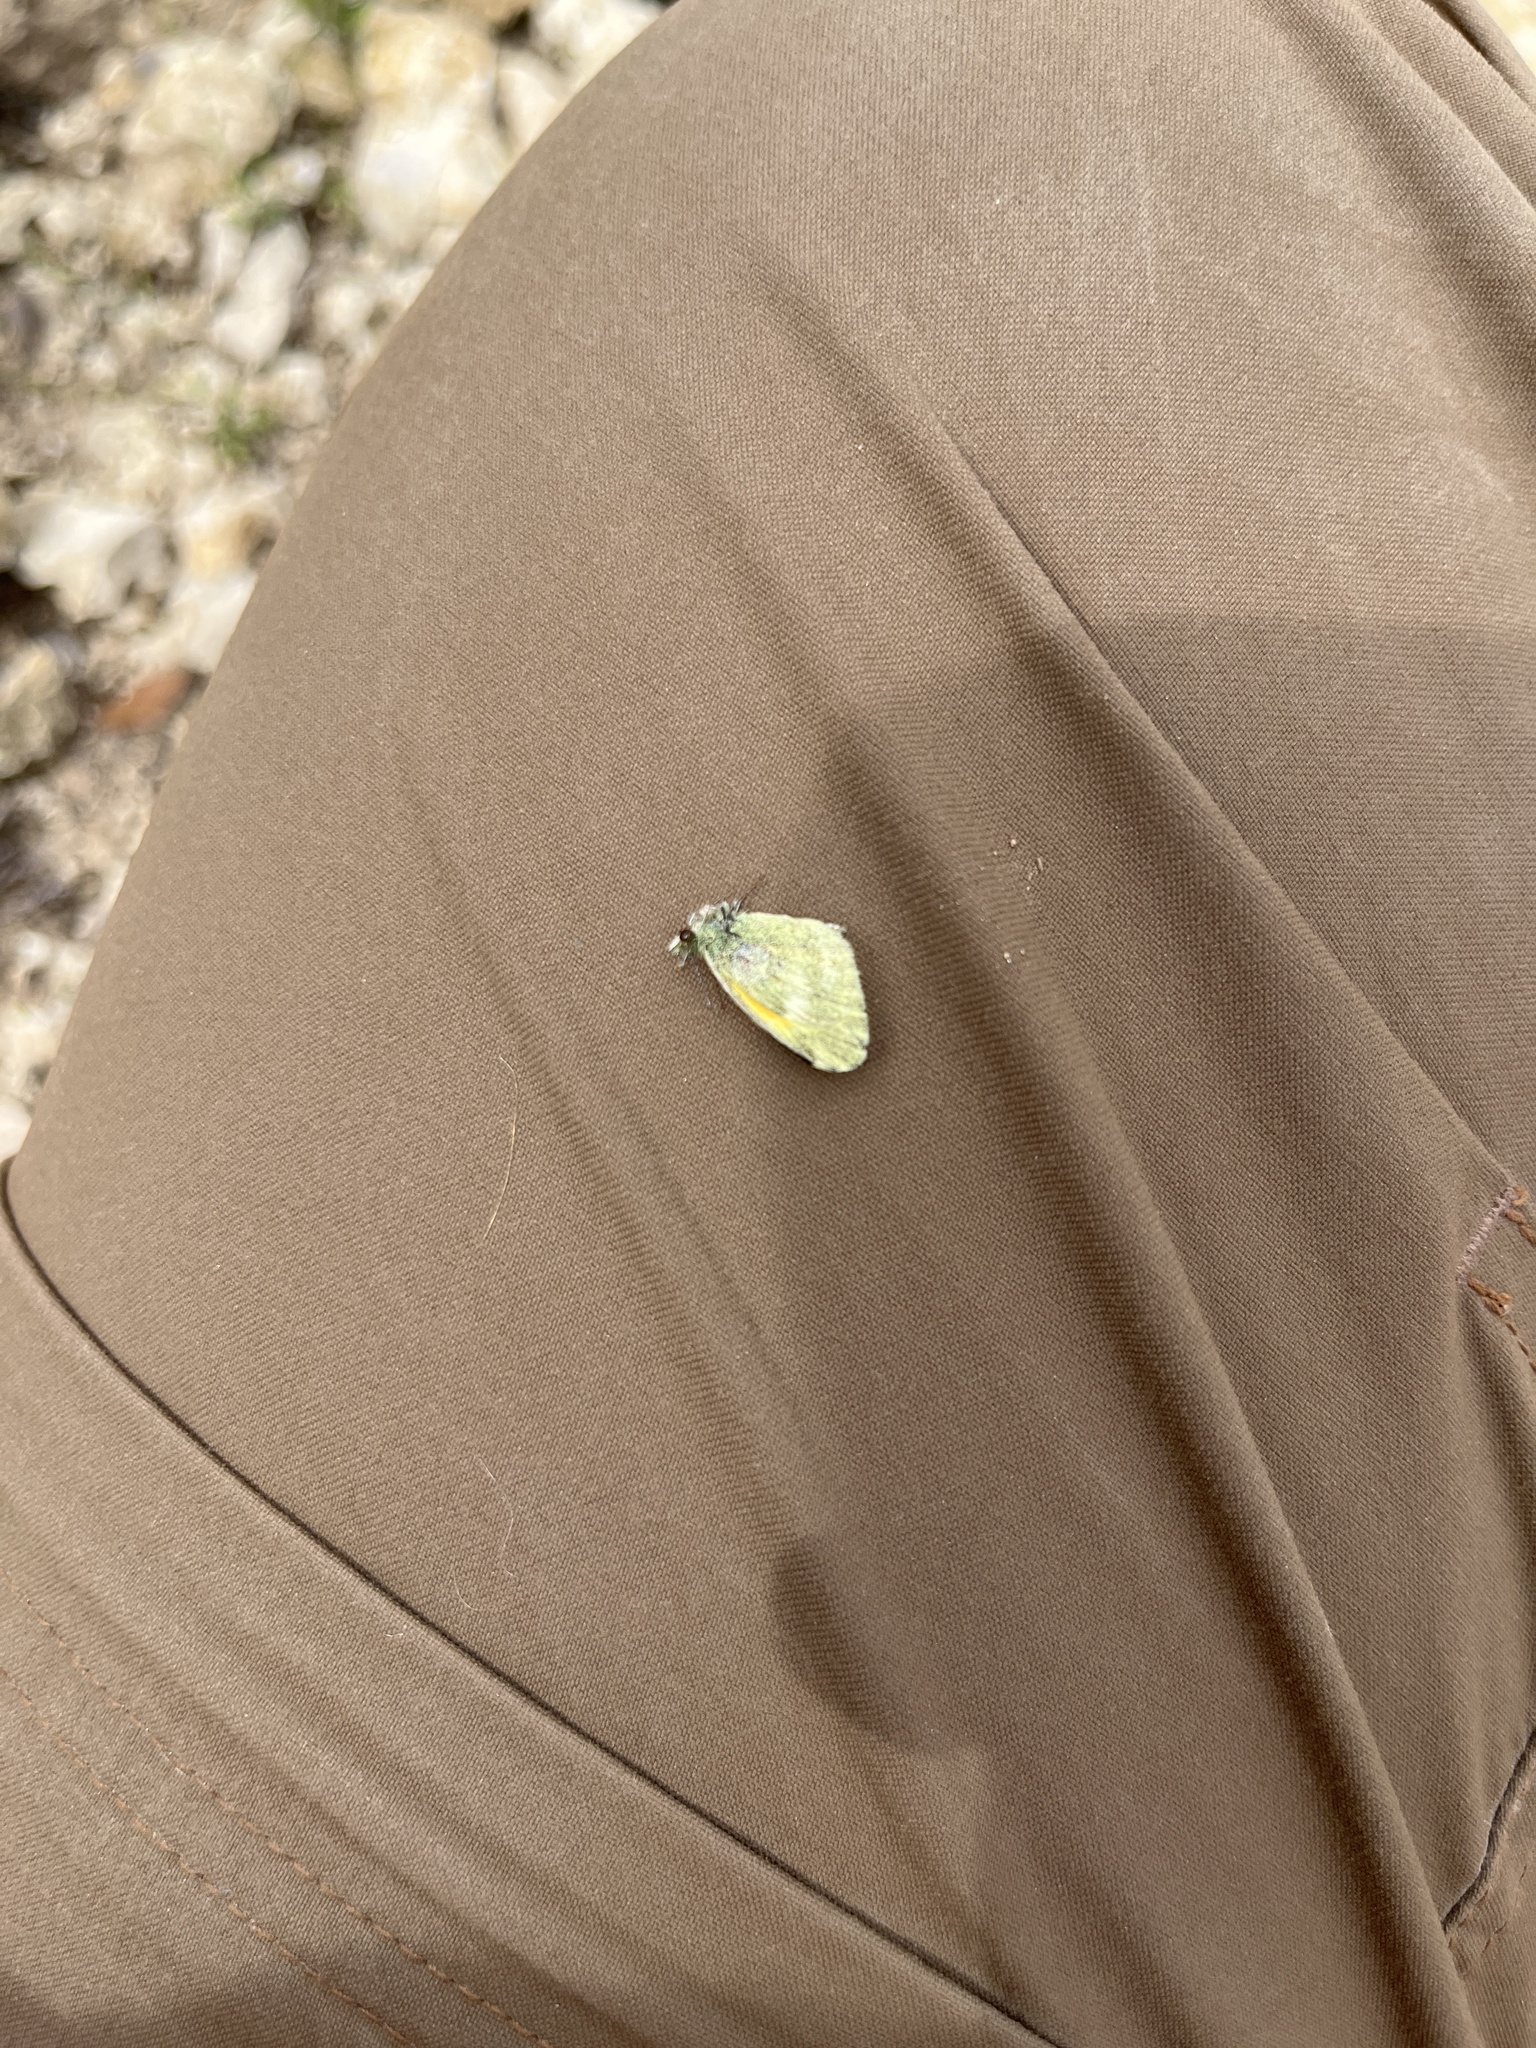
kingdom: Animalia
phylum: Arthropoda
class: Insecta
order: Lepidoptera
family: Pieridae
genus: Nathalis
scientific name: Nathalis iole
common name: Dainty sulphur
